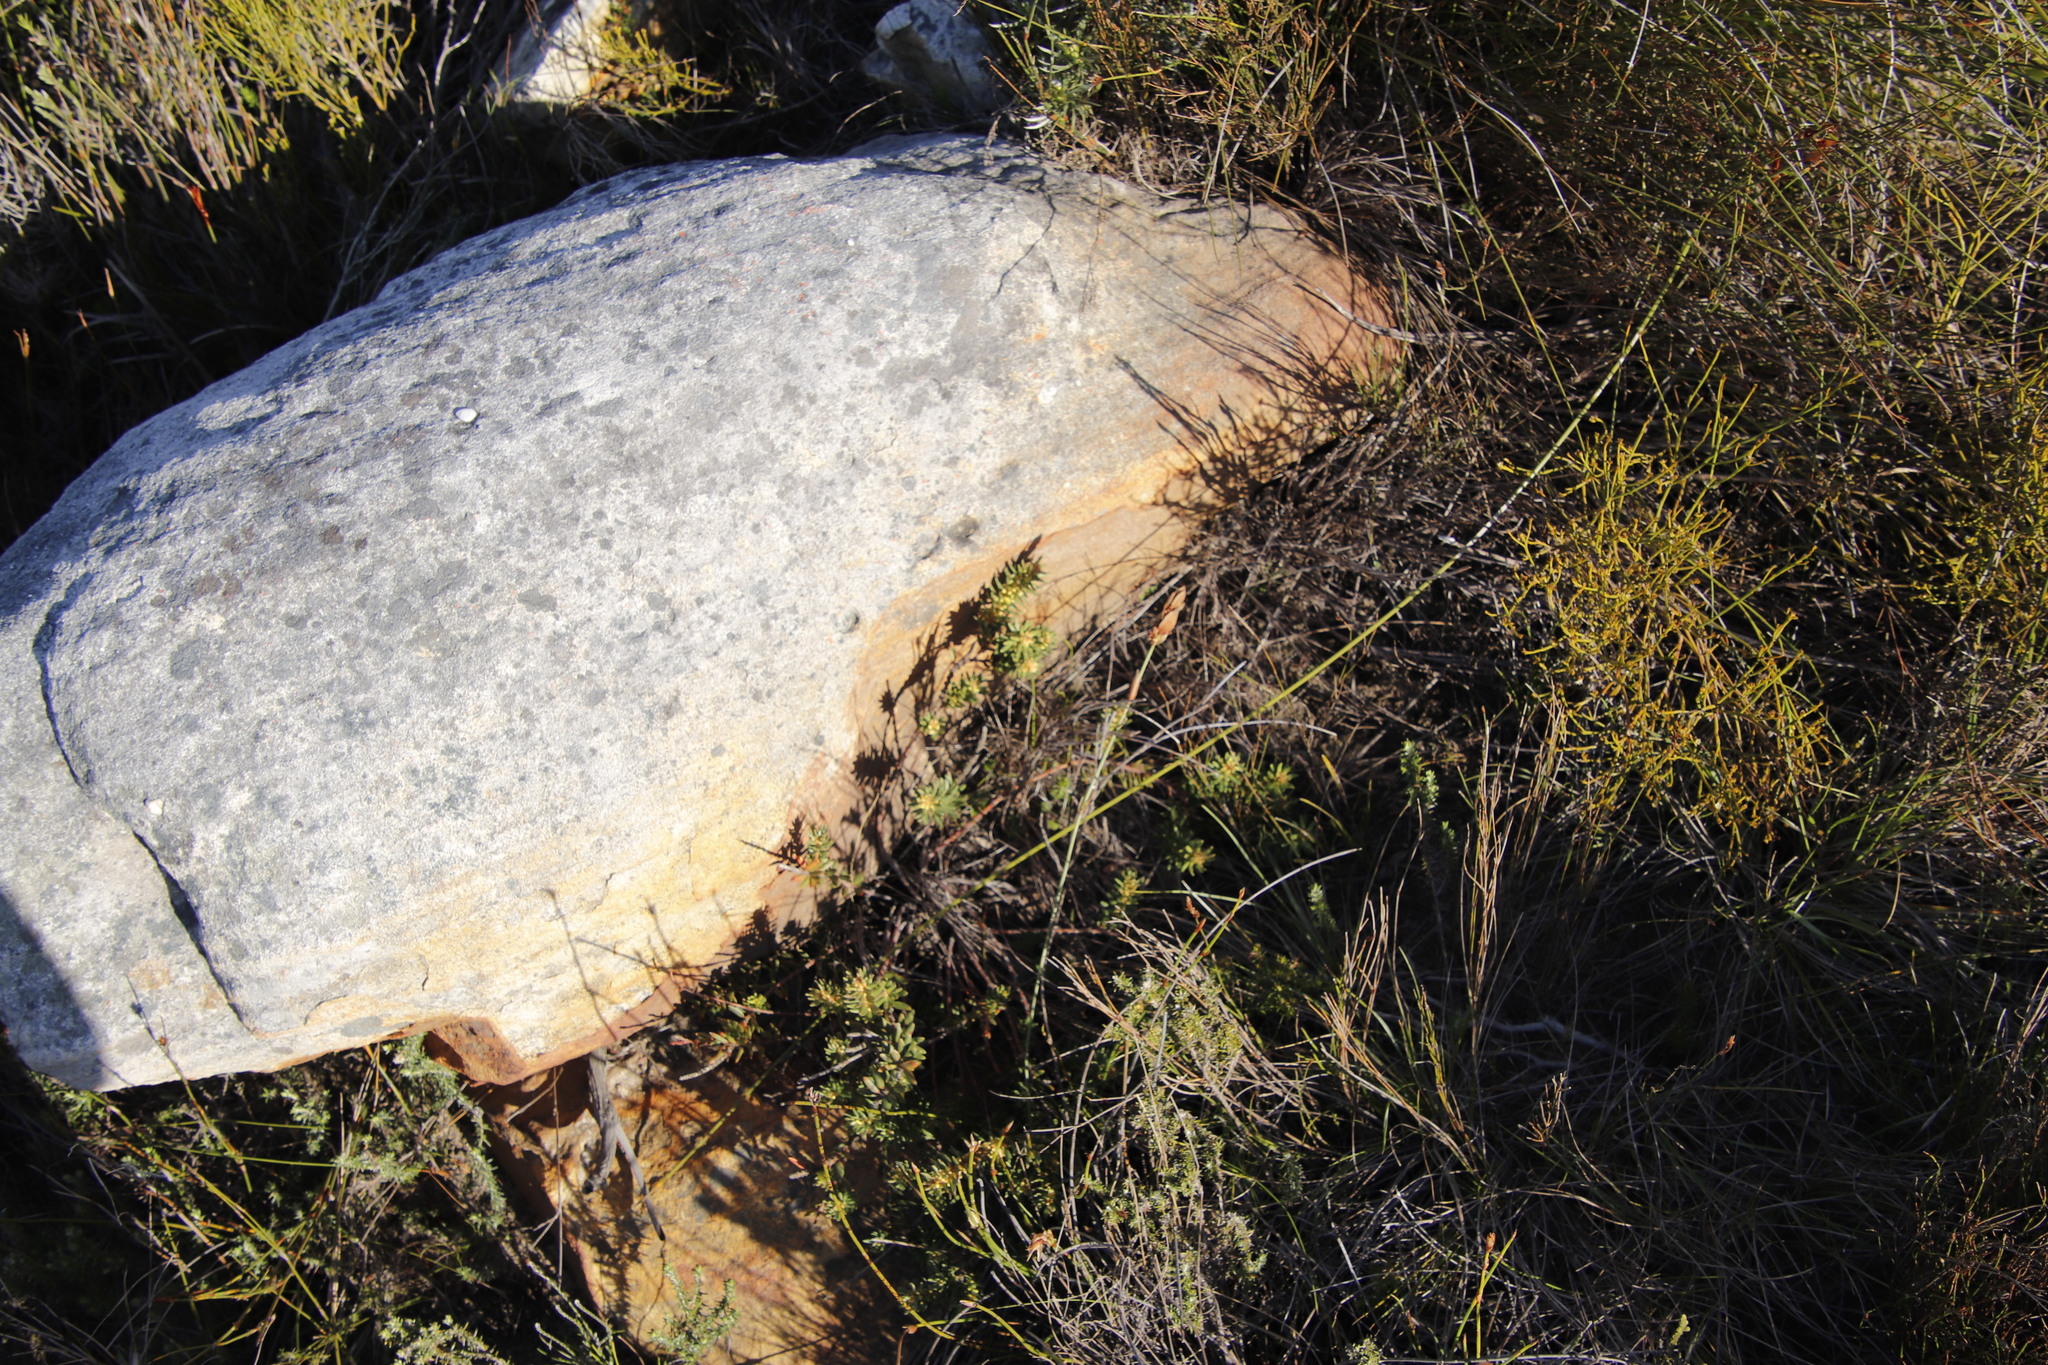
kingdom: Plantae
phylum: Tracheophyta
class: Magnoliopsida
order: Malpighiales
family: Peraceae
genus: Clutia
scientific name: Clutia polygonoides
